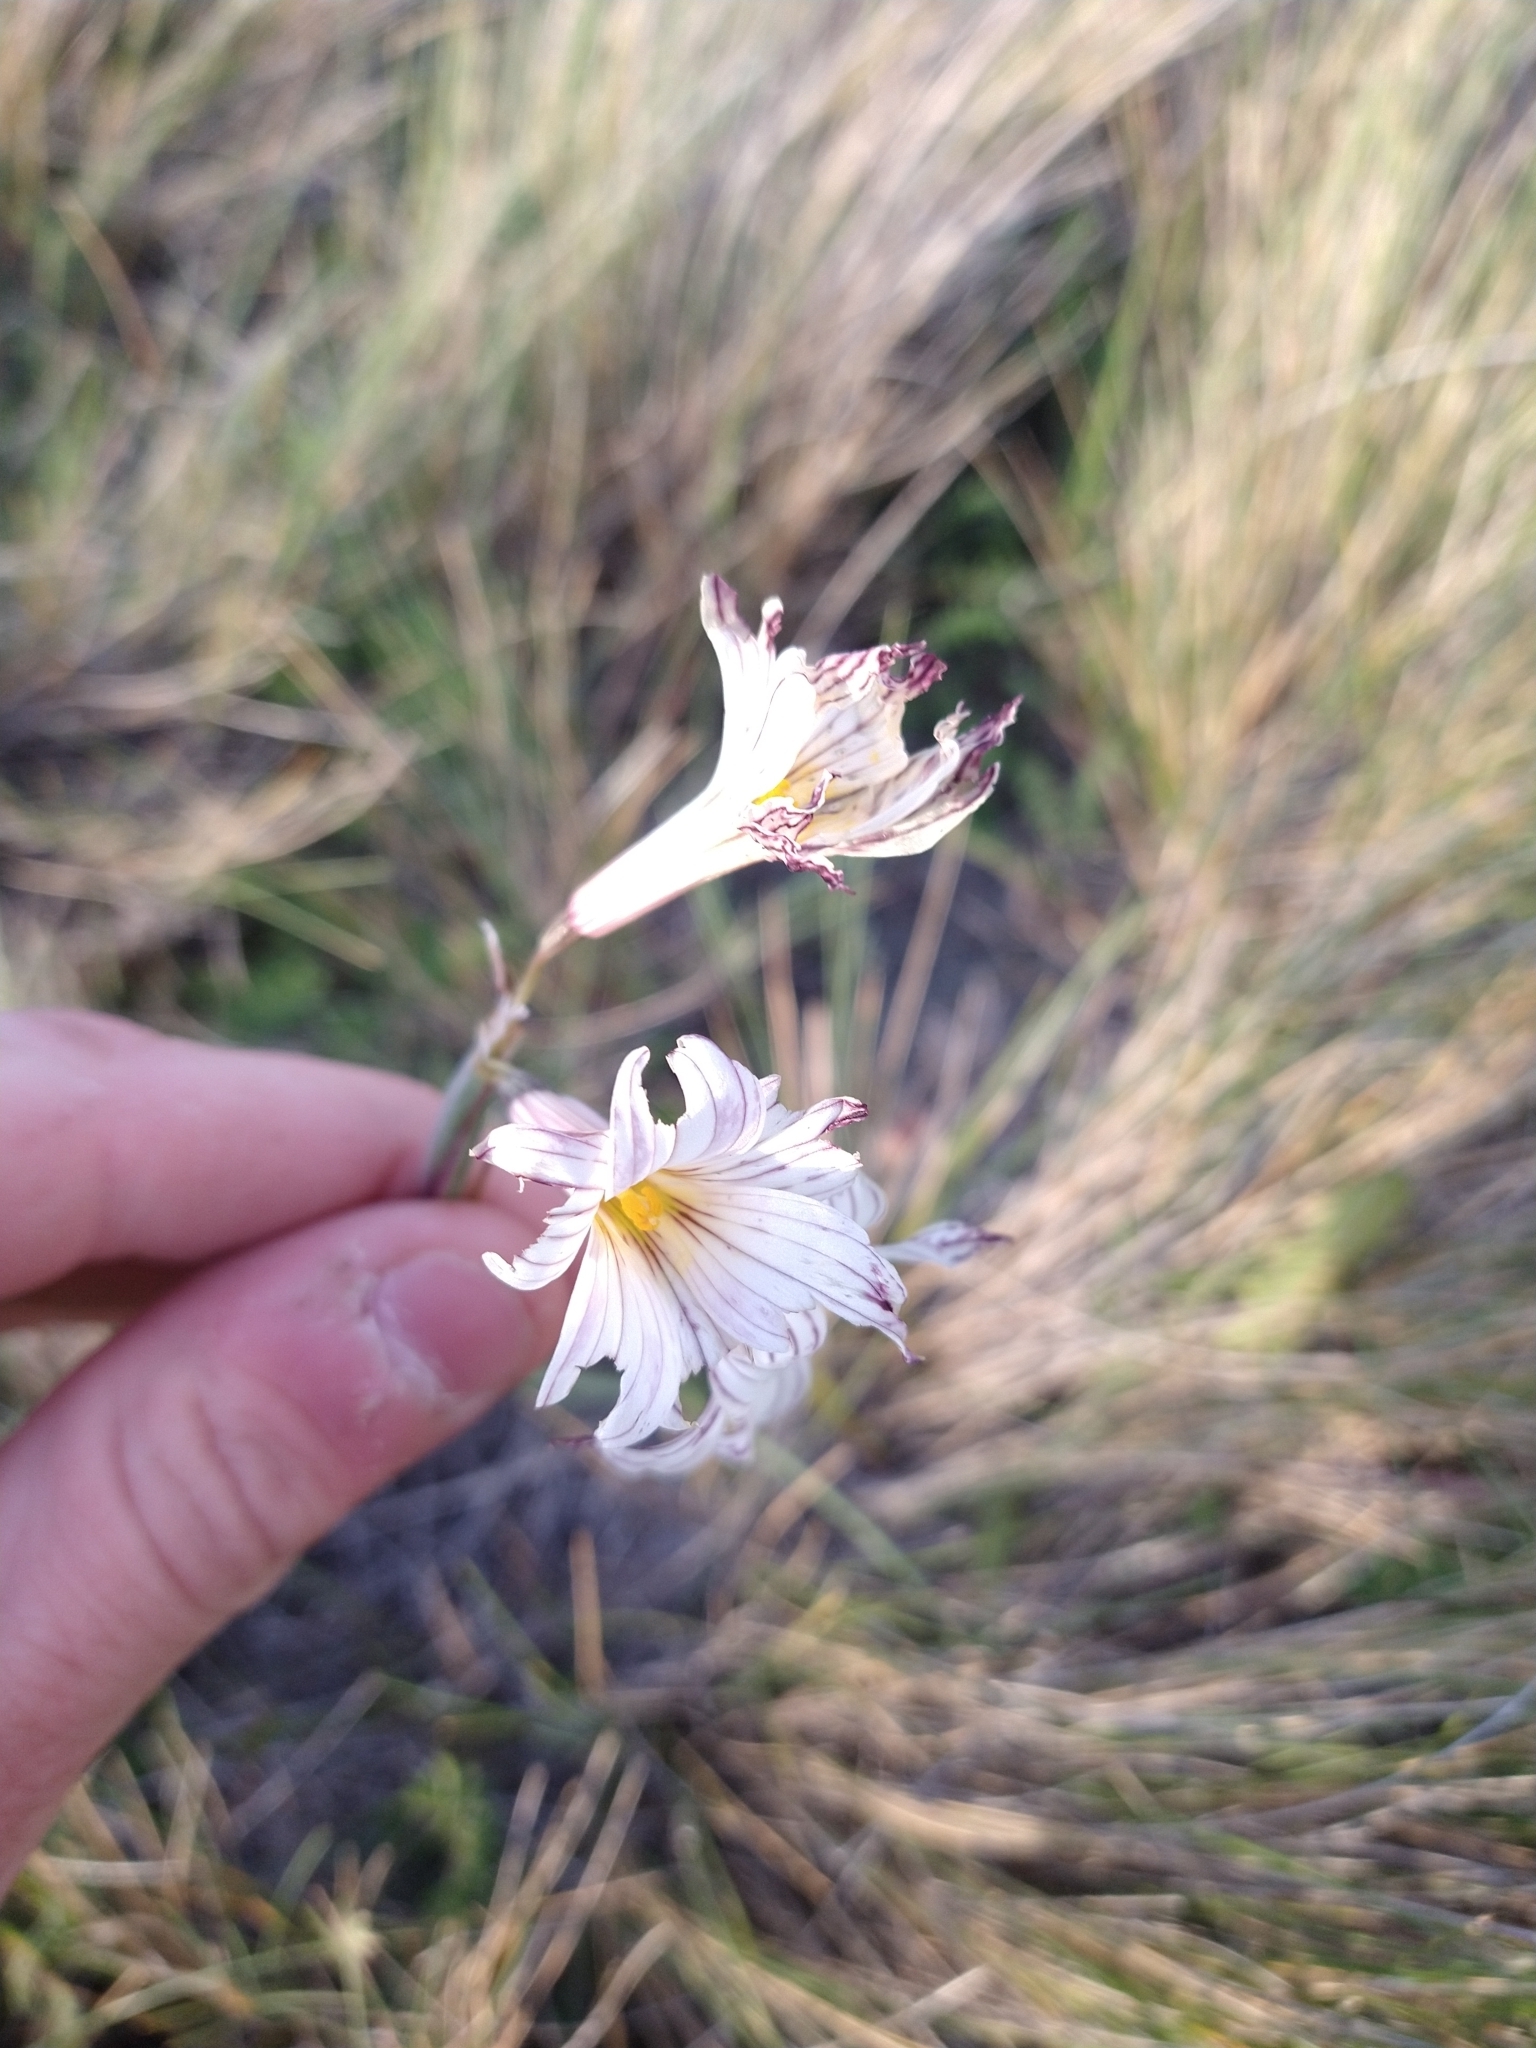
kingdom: Plantae
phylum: Tracheophyta
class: Liliopsida
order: Asparagales
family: Iridaceae
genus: Olsynium
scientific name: Olsynium biflorum
